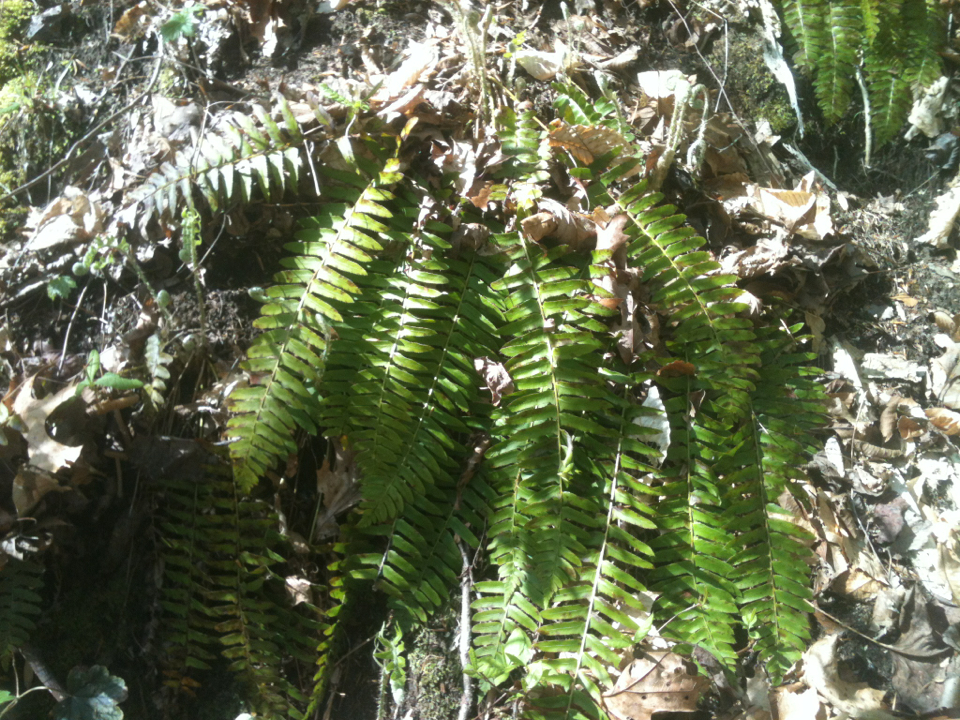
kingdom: Plantae
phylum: Tracheophyta
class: Polypodiopsida
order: Polypodiales
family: Dryopteridaceae
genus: Polystichum
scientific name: Polystichum acrostichoides
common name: Christmas fern
